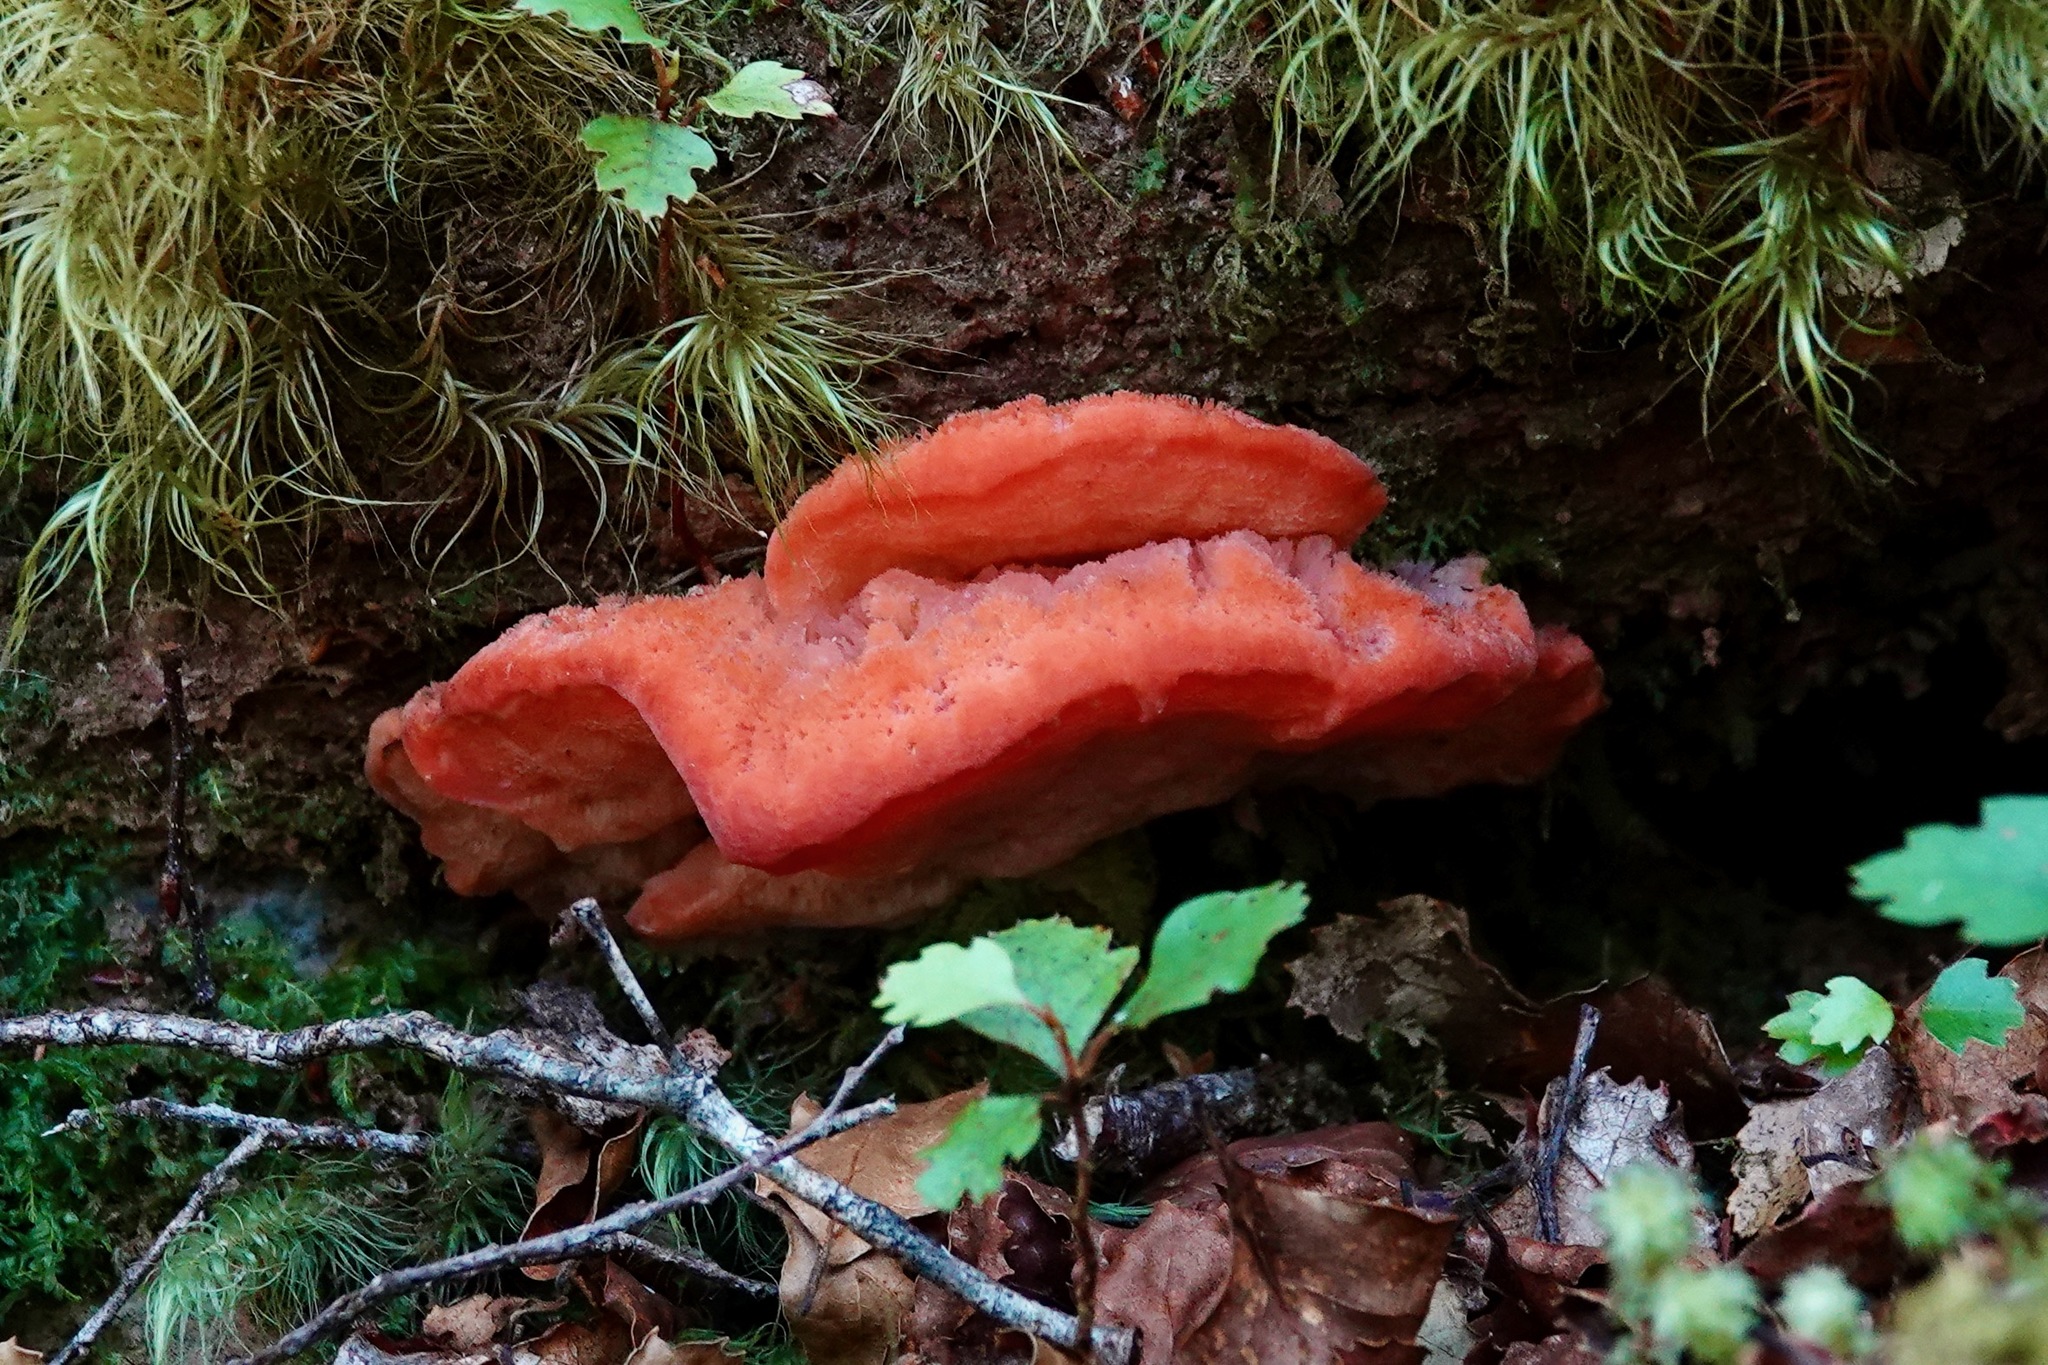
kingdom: Fungi
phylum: Basidiomycota
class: Agaricomycetes
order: Polyporales
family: Incrustoporiaceae
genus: Tyromyces
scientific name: Tyromyces pulcherrimus
